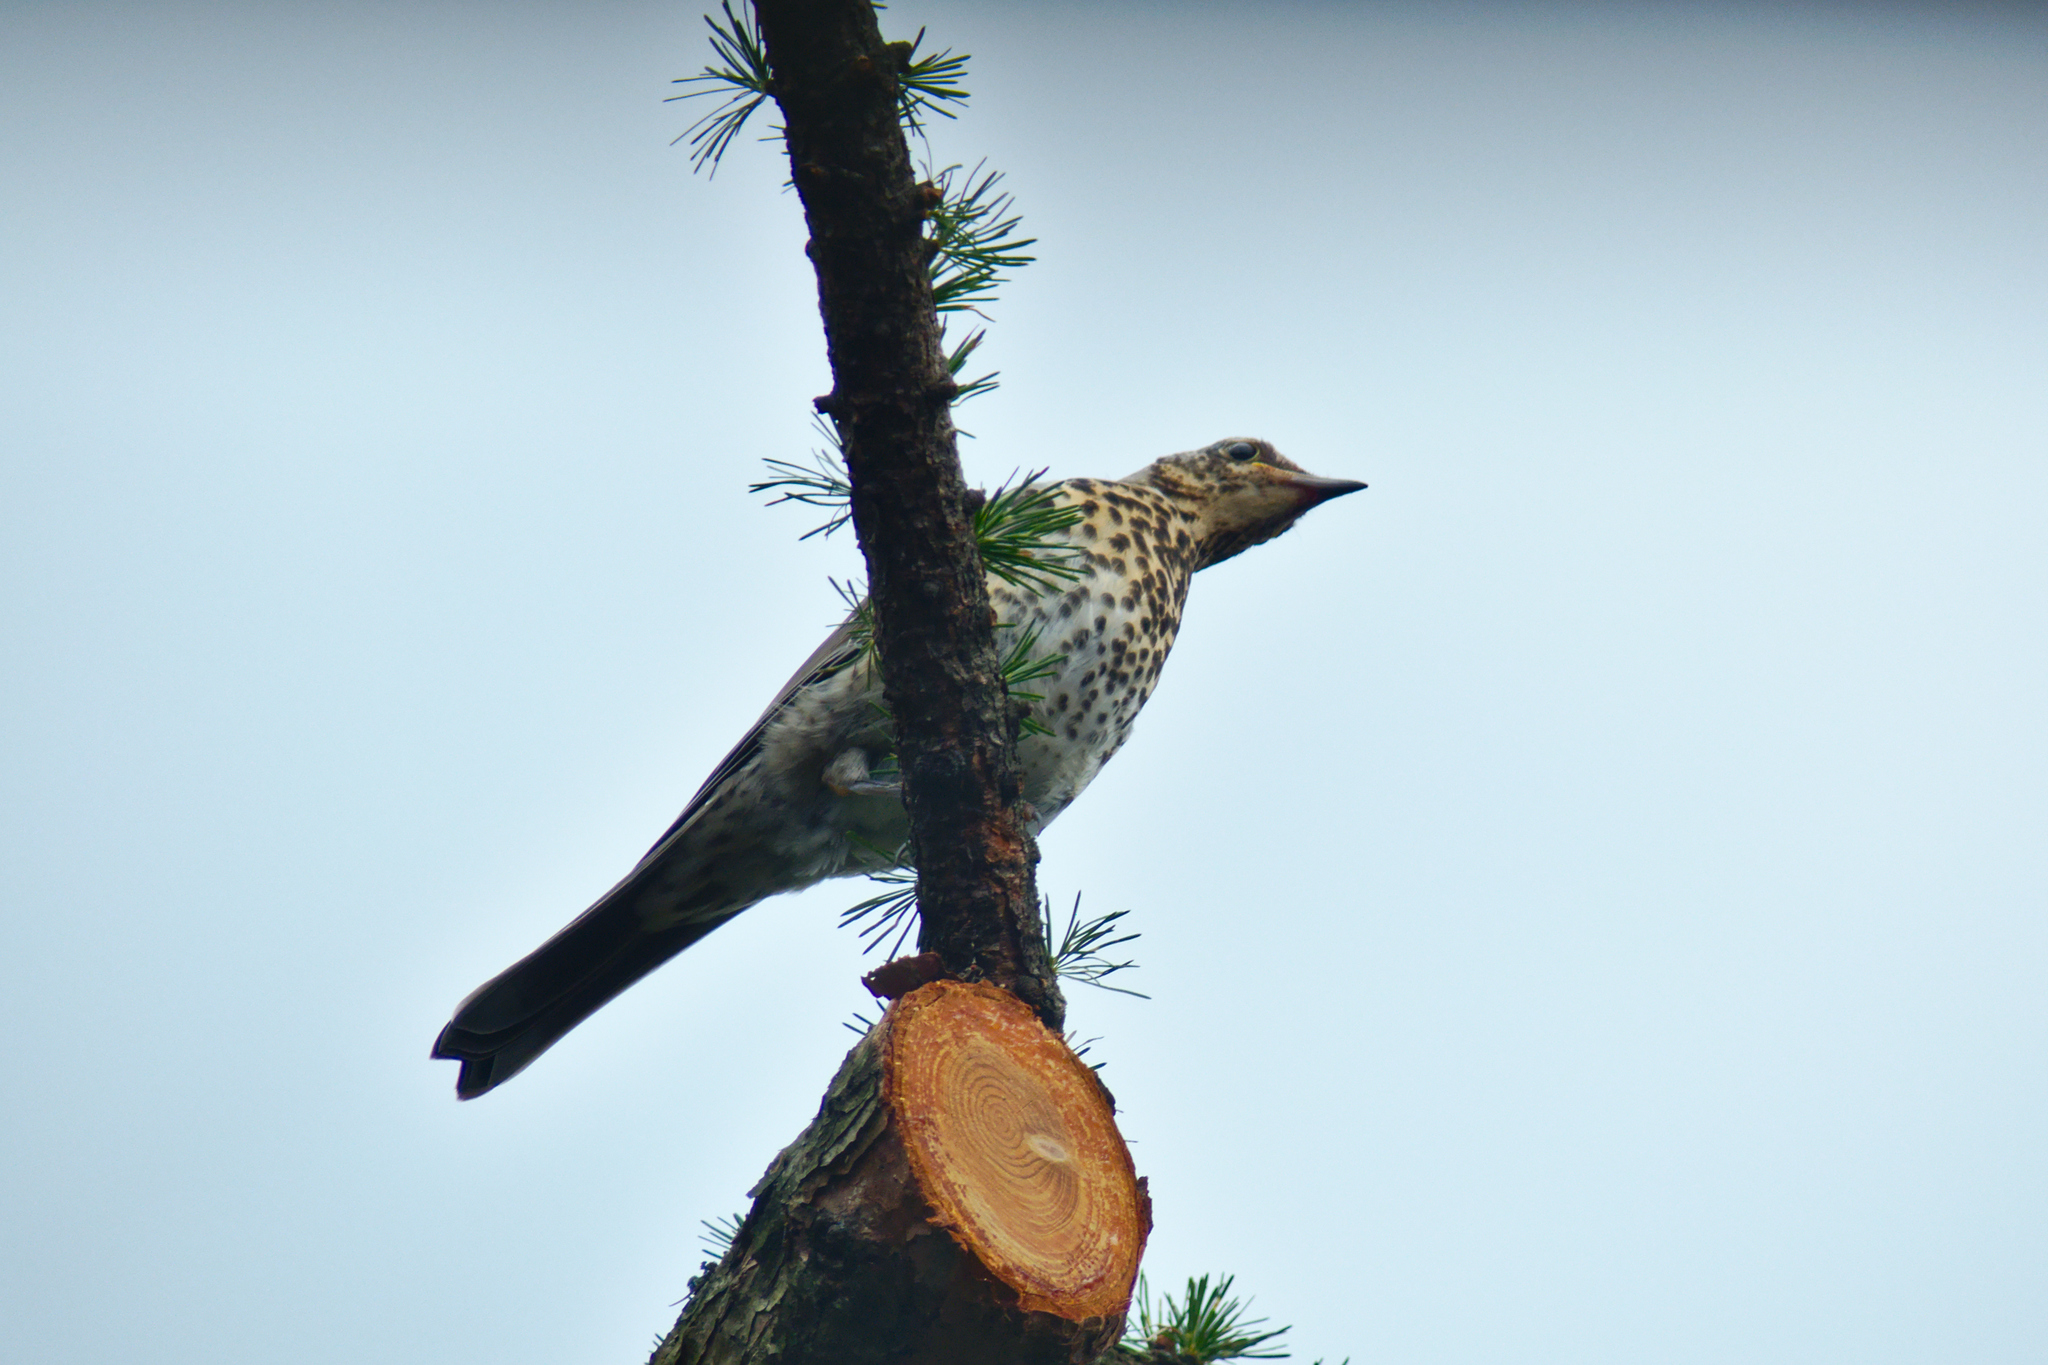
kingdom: Animalia
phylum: Chordata
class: Aves
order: Passeriformes
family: Turdidae
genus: Turdus
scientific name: Turdus viscivorus
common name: Mistle thrush
